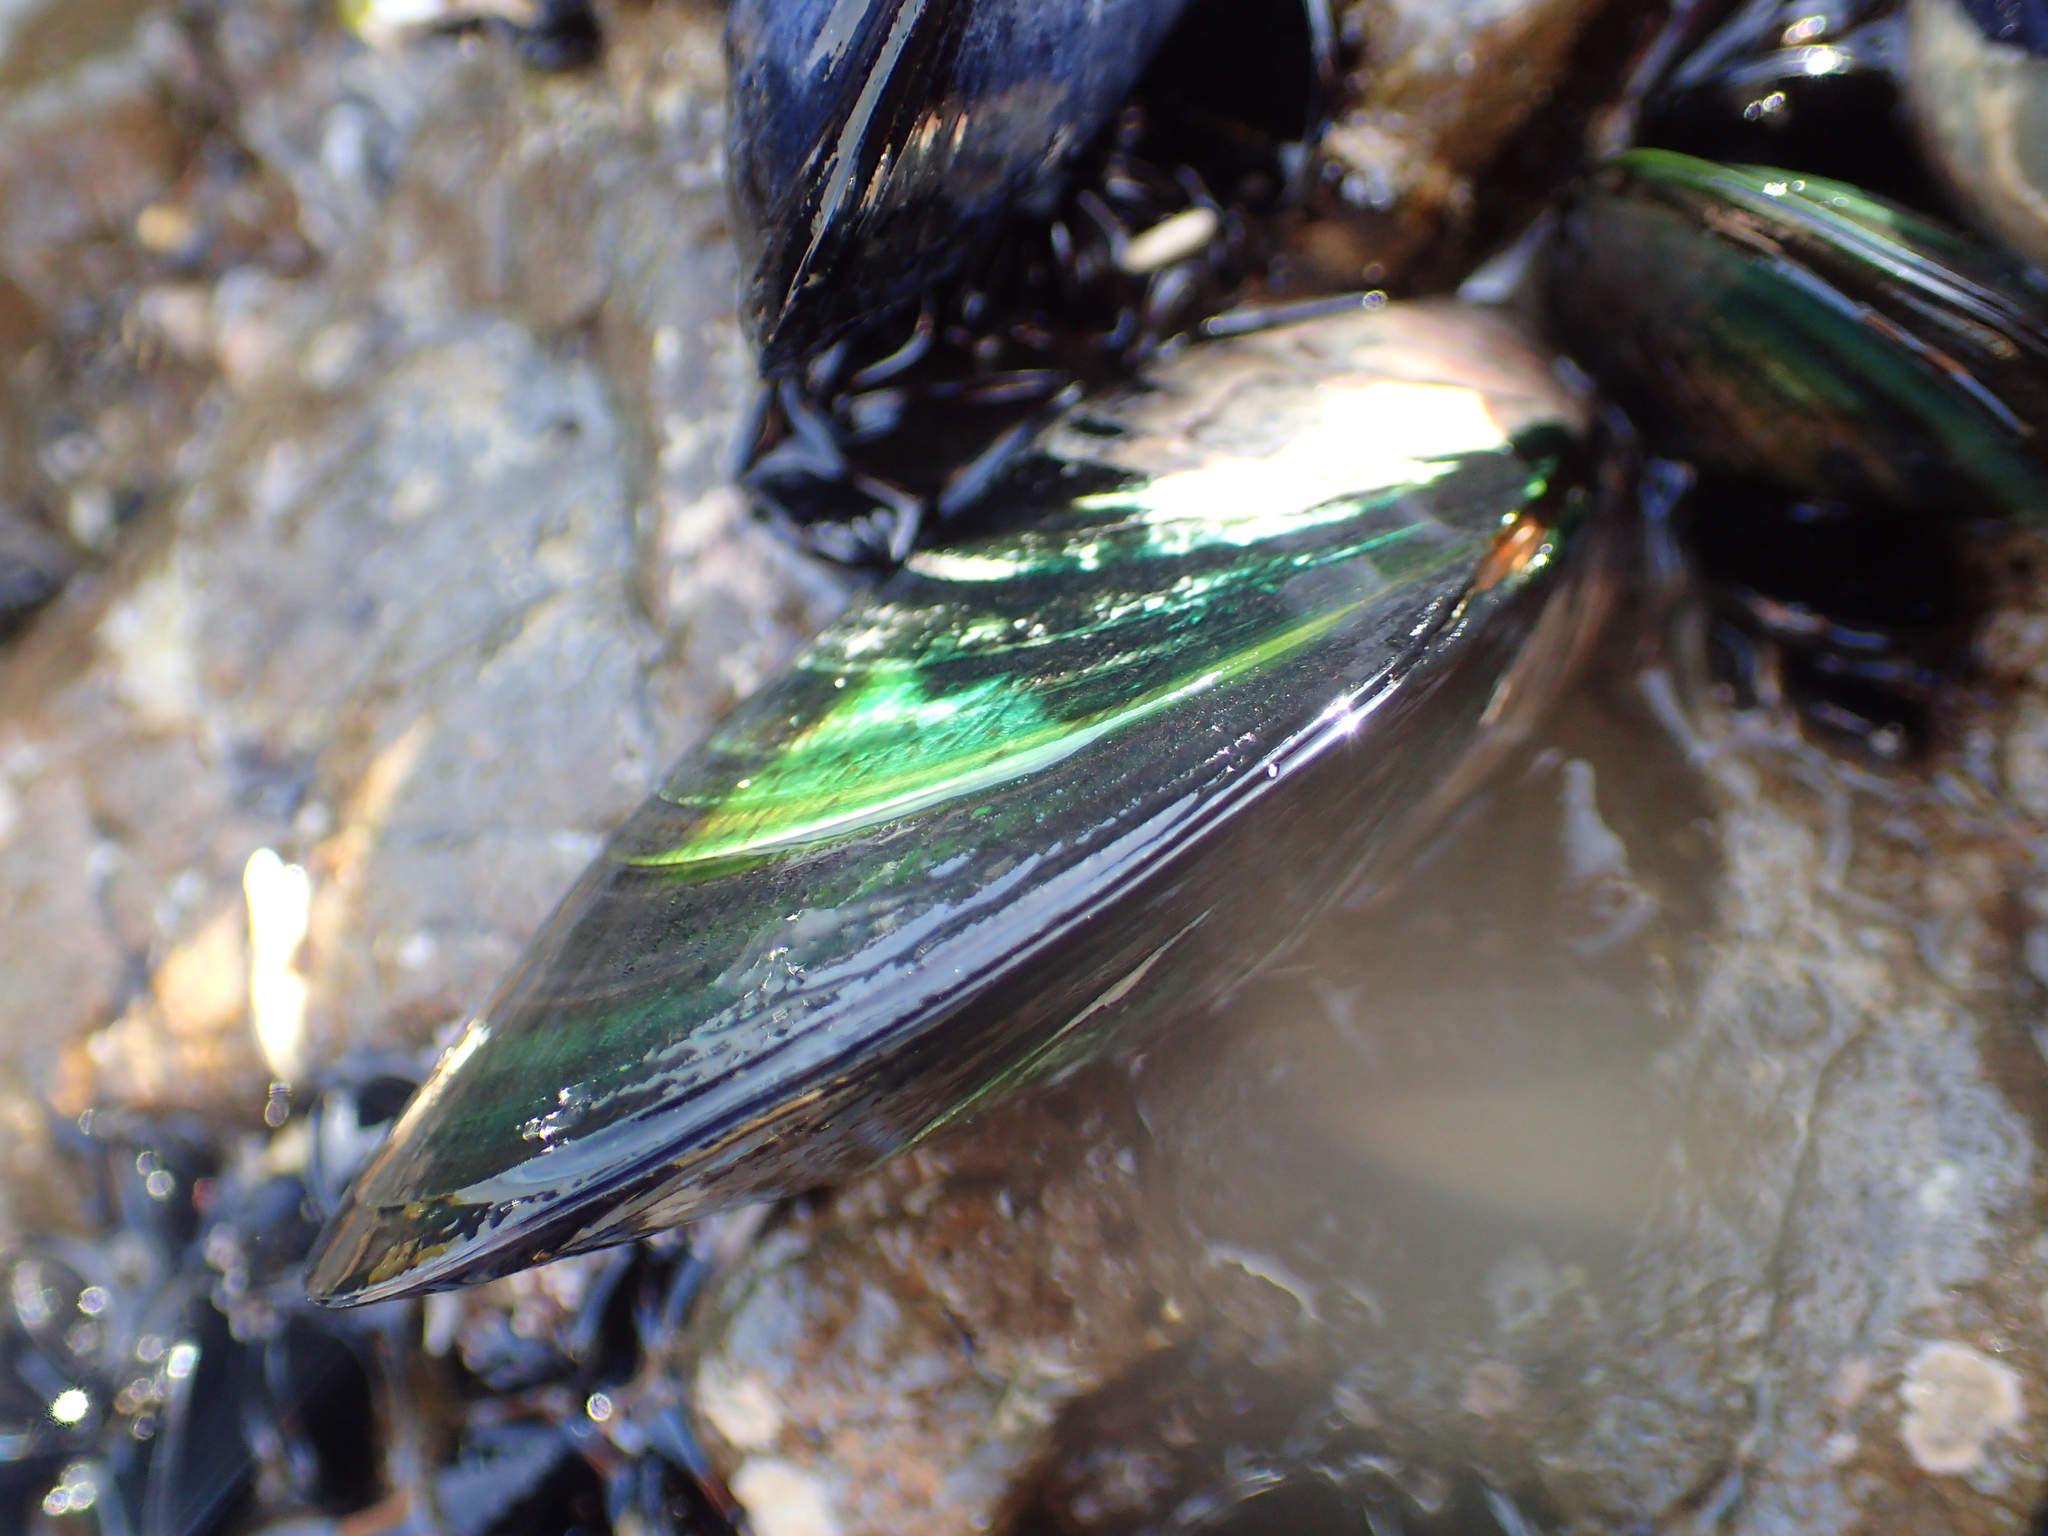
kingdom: Animalia
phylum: Mollusca
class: Bivalvia
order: Mytilida
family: Mytilidae
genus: Perna
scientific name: Perna canaliculus
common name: New zealand greenshelltm
